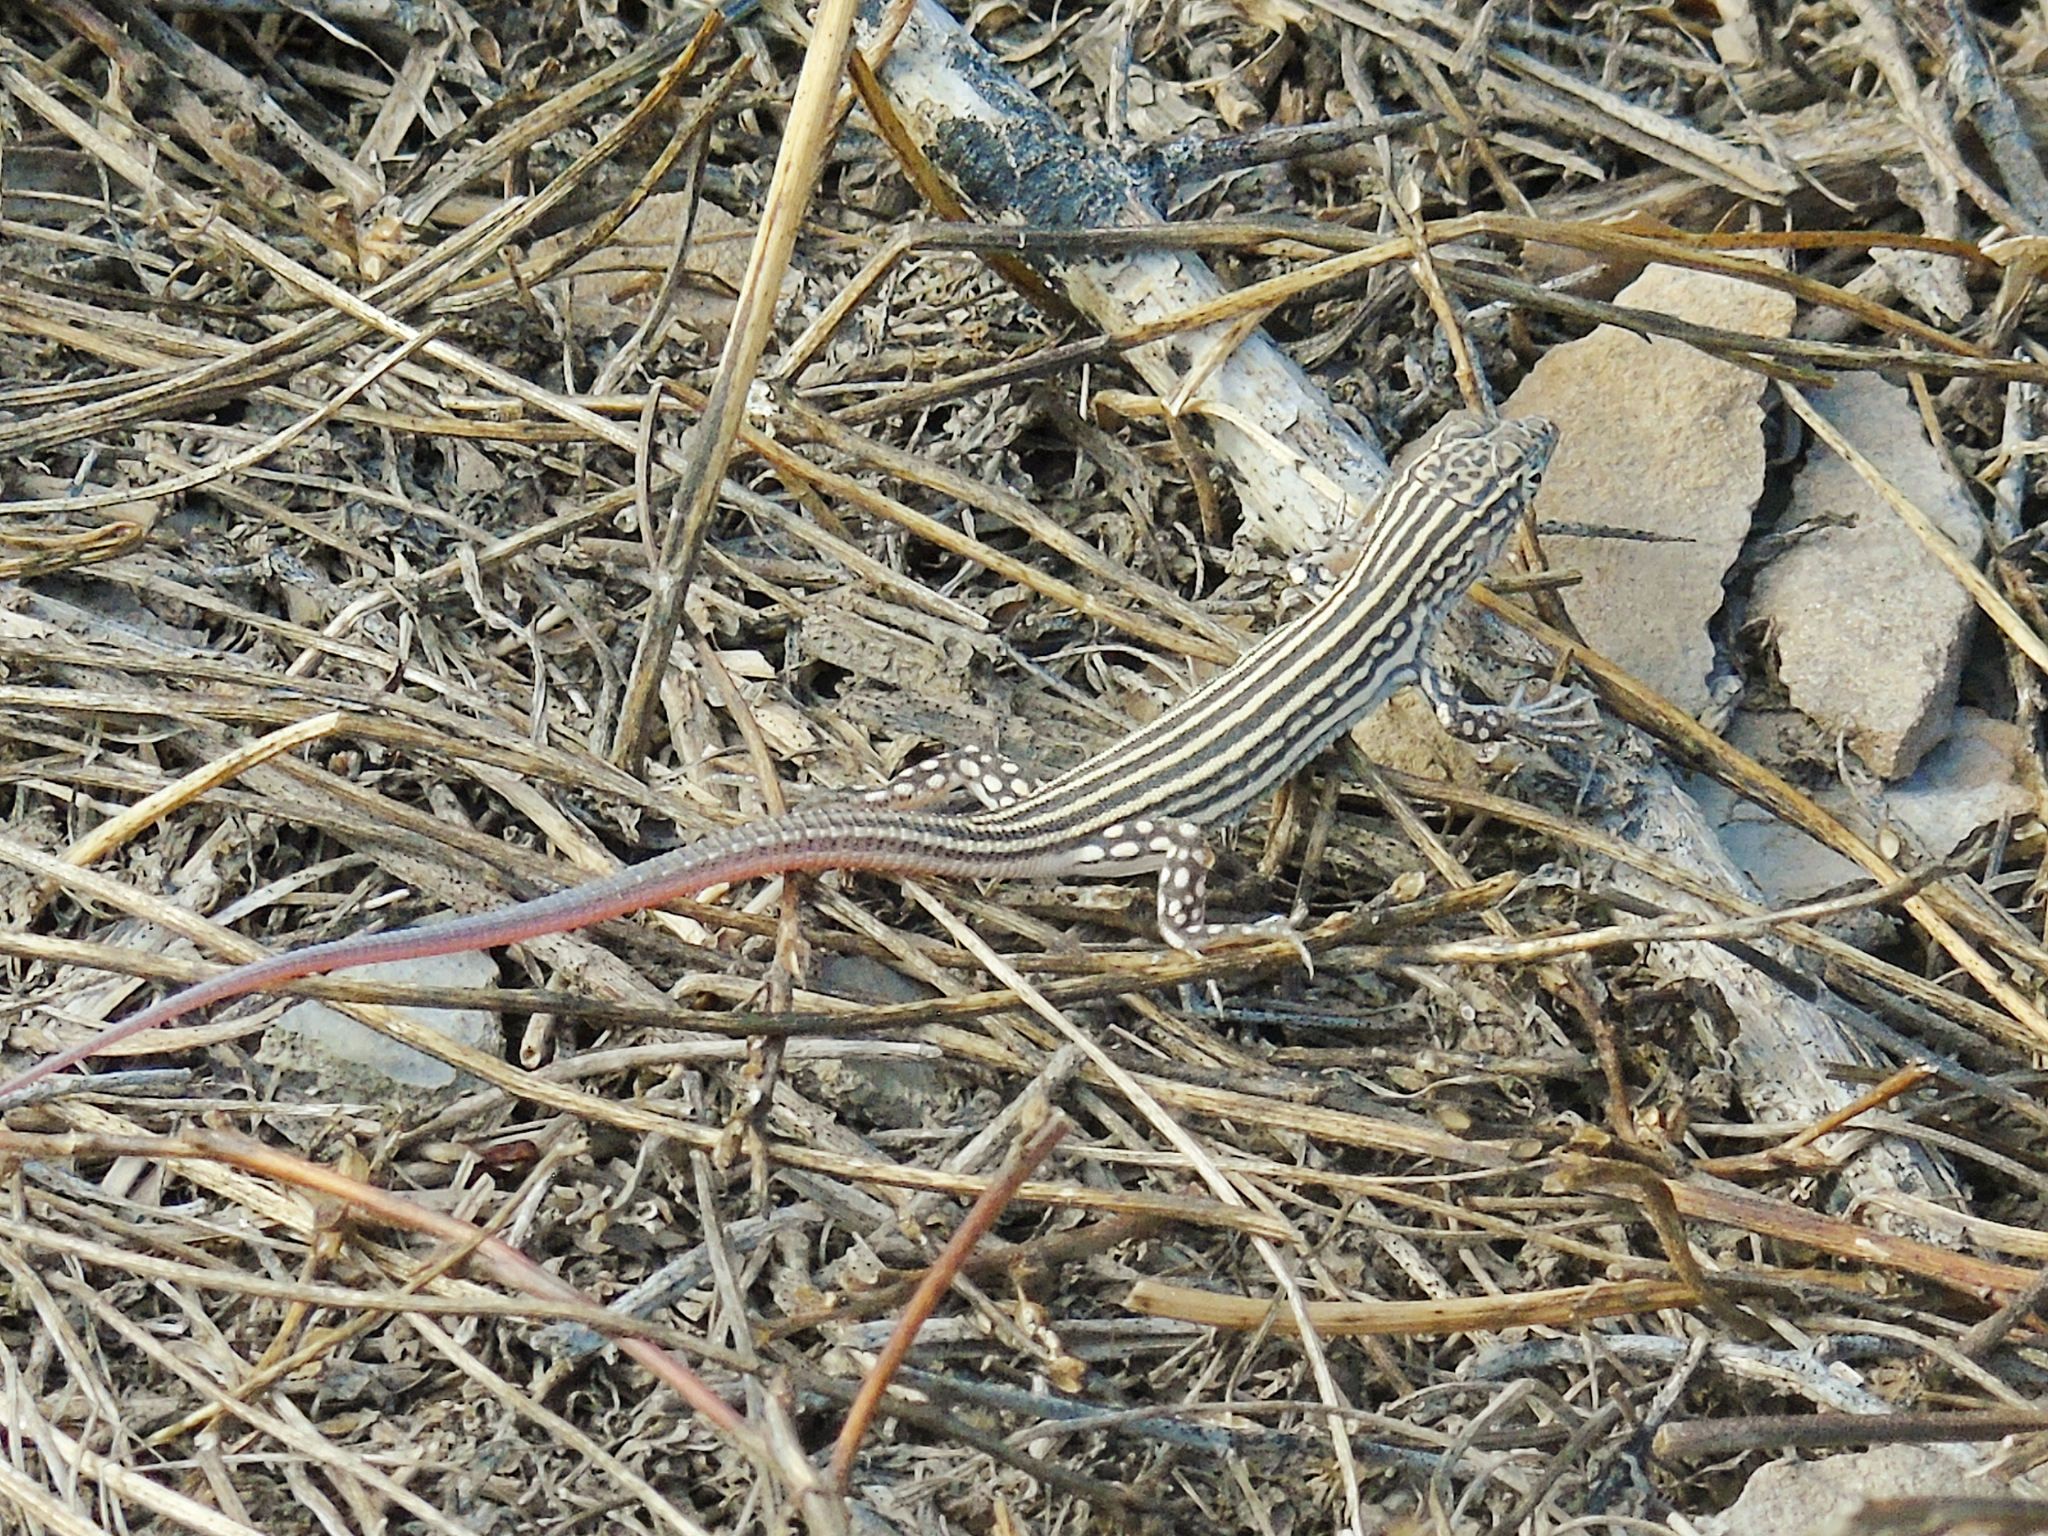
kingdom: Animalia
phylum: Chordata
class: Squamata
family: Lacertidae
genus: Eremias
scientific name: Eremias velox
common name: Central asian racerunner
